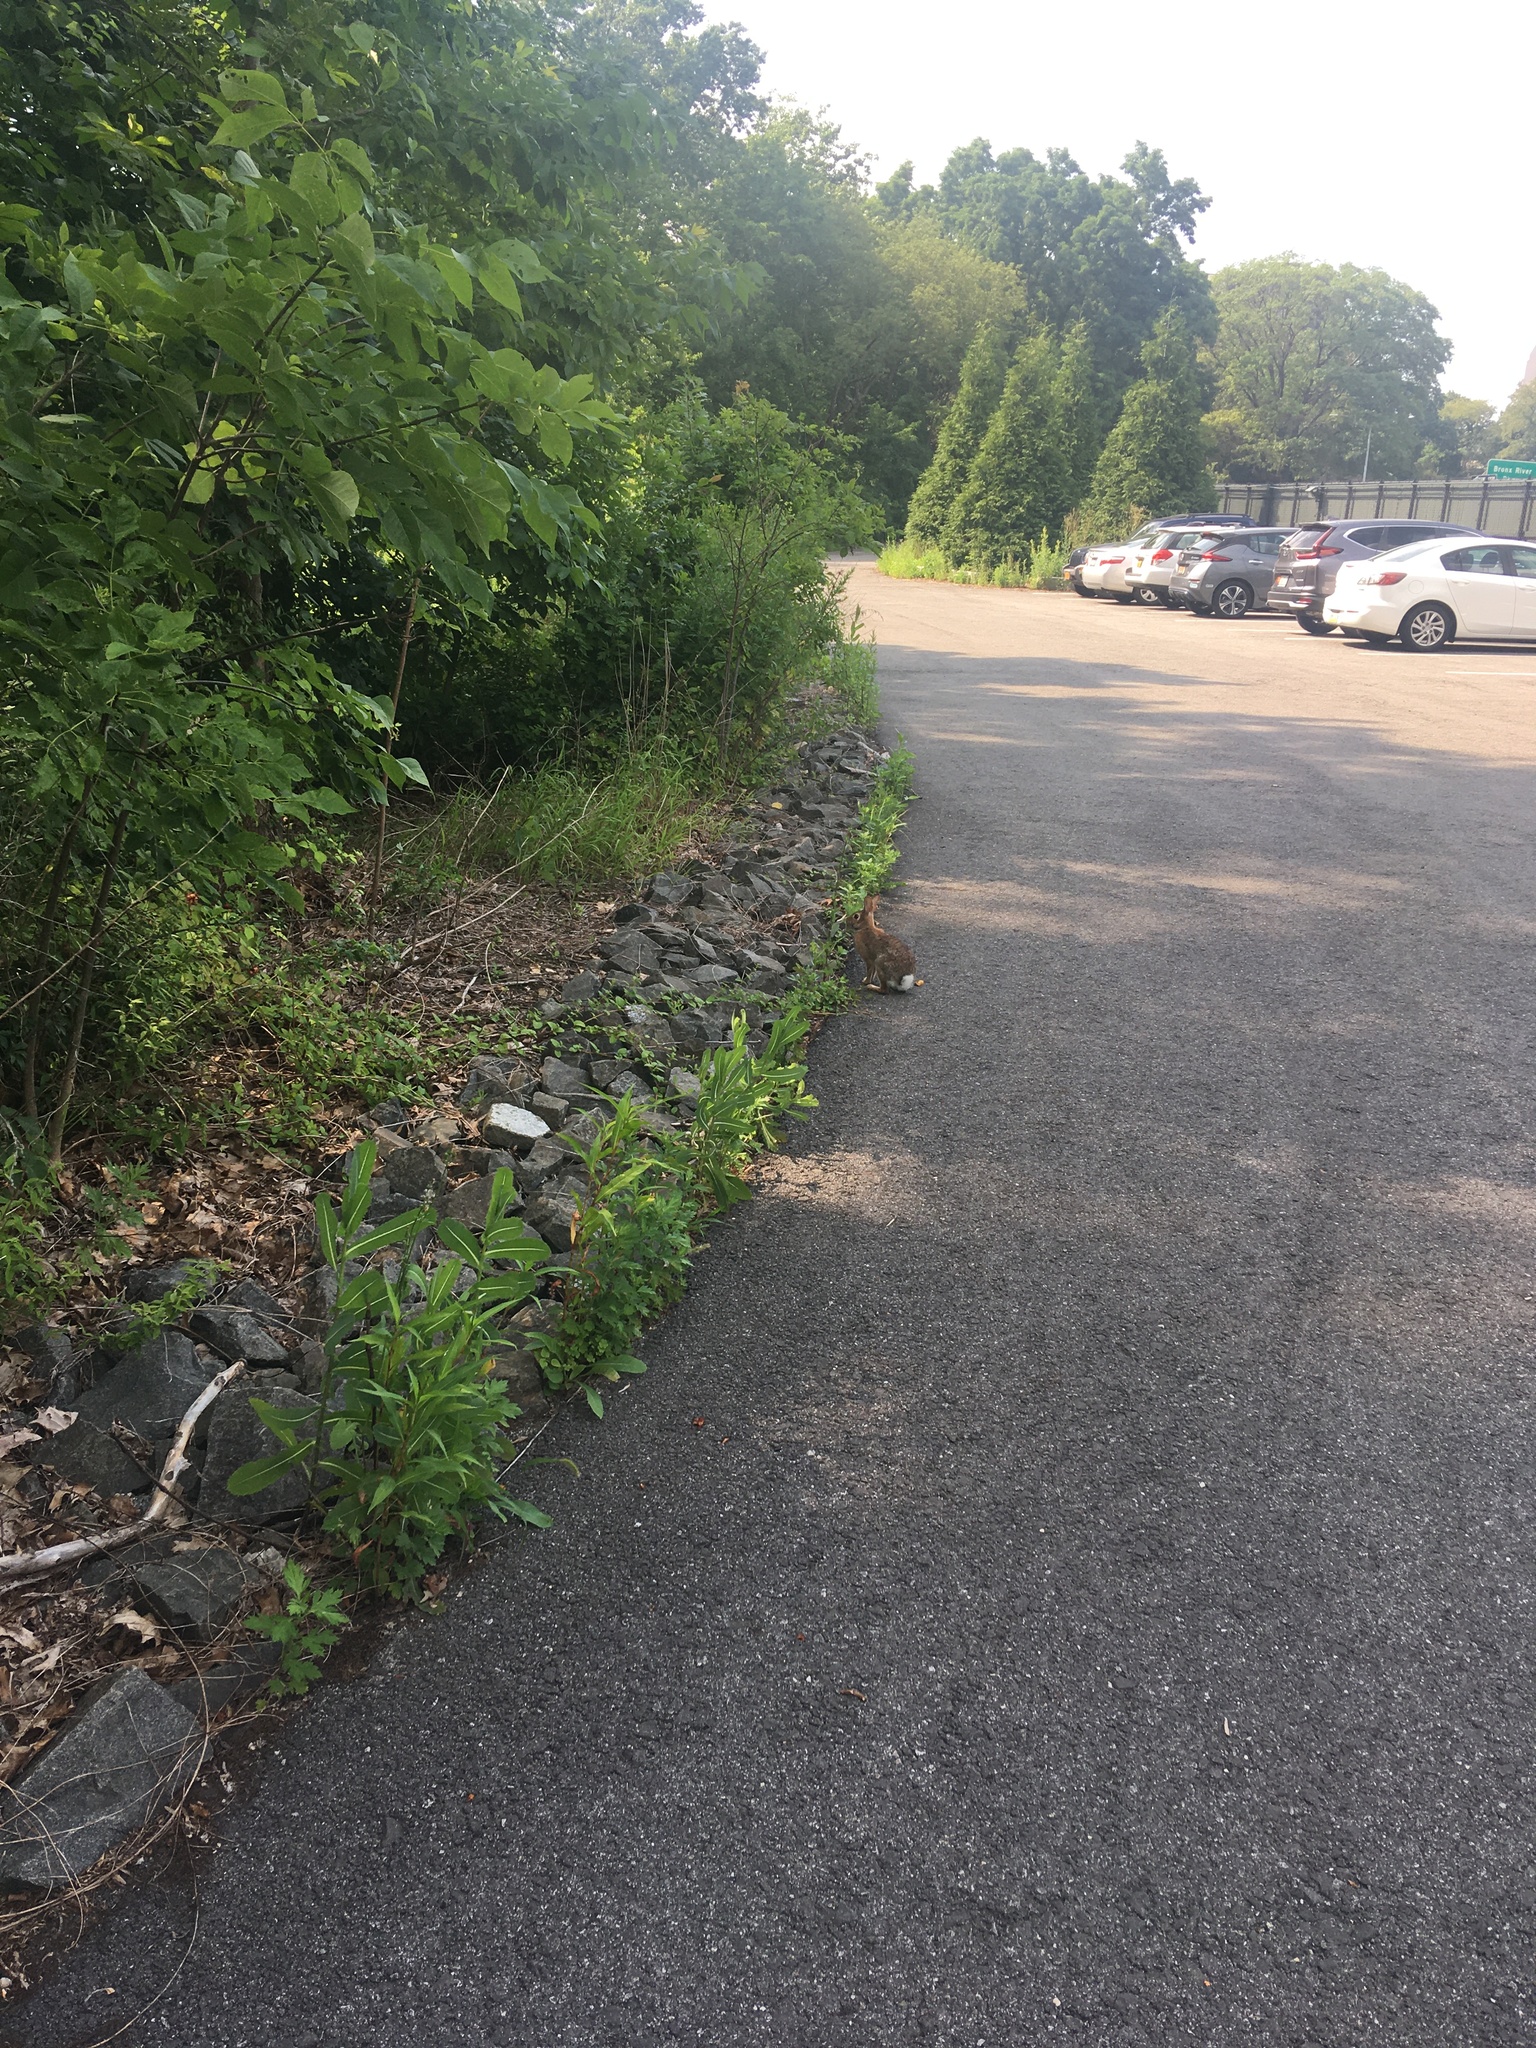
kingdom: Animalia
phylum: Chordata
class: Mammalia
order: Lagomorpha
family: Leporidae
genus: Sylvilagus
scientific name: Sylvilagus floridanus
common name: Eastern cottontail
